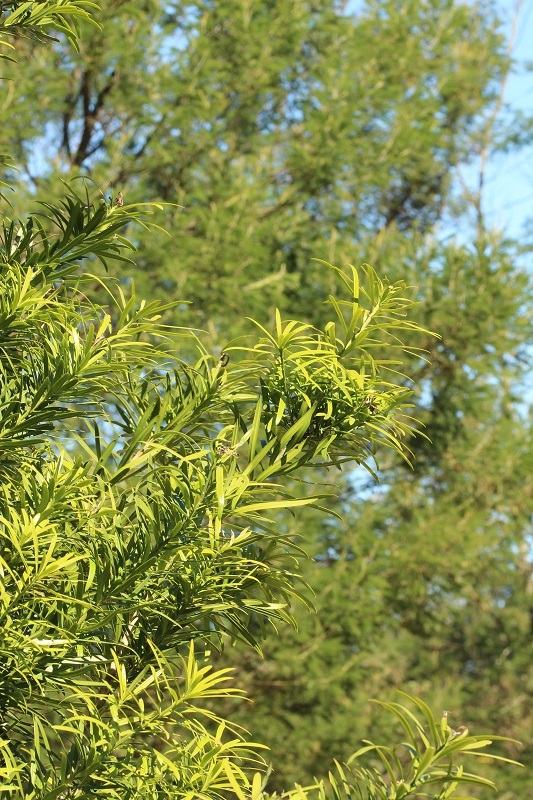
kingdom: Plantae
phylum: Tracheophyta
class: Pinopsida
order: Pinales
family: Podocarpaceae
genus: Podocarpus
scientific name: Podocarpus latifolius
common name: True yellowwood
